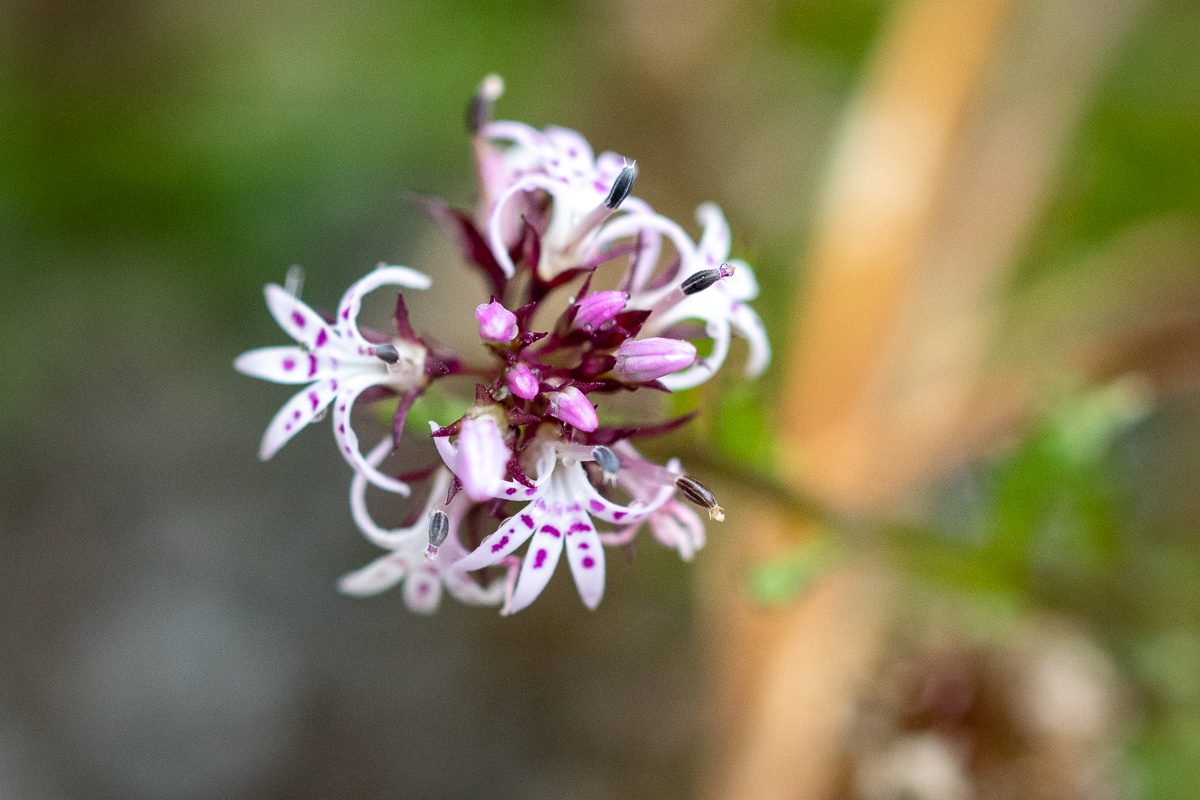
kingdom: Plantae
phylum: Tracheophyta
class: Magnoliopsida
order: Asterales
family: Campanulaceae
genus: Lobelia
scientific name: Lobelia jasionoides
